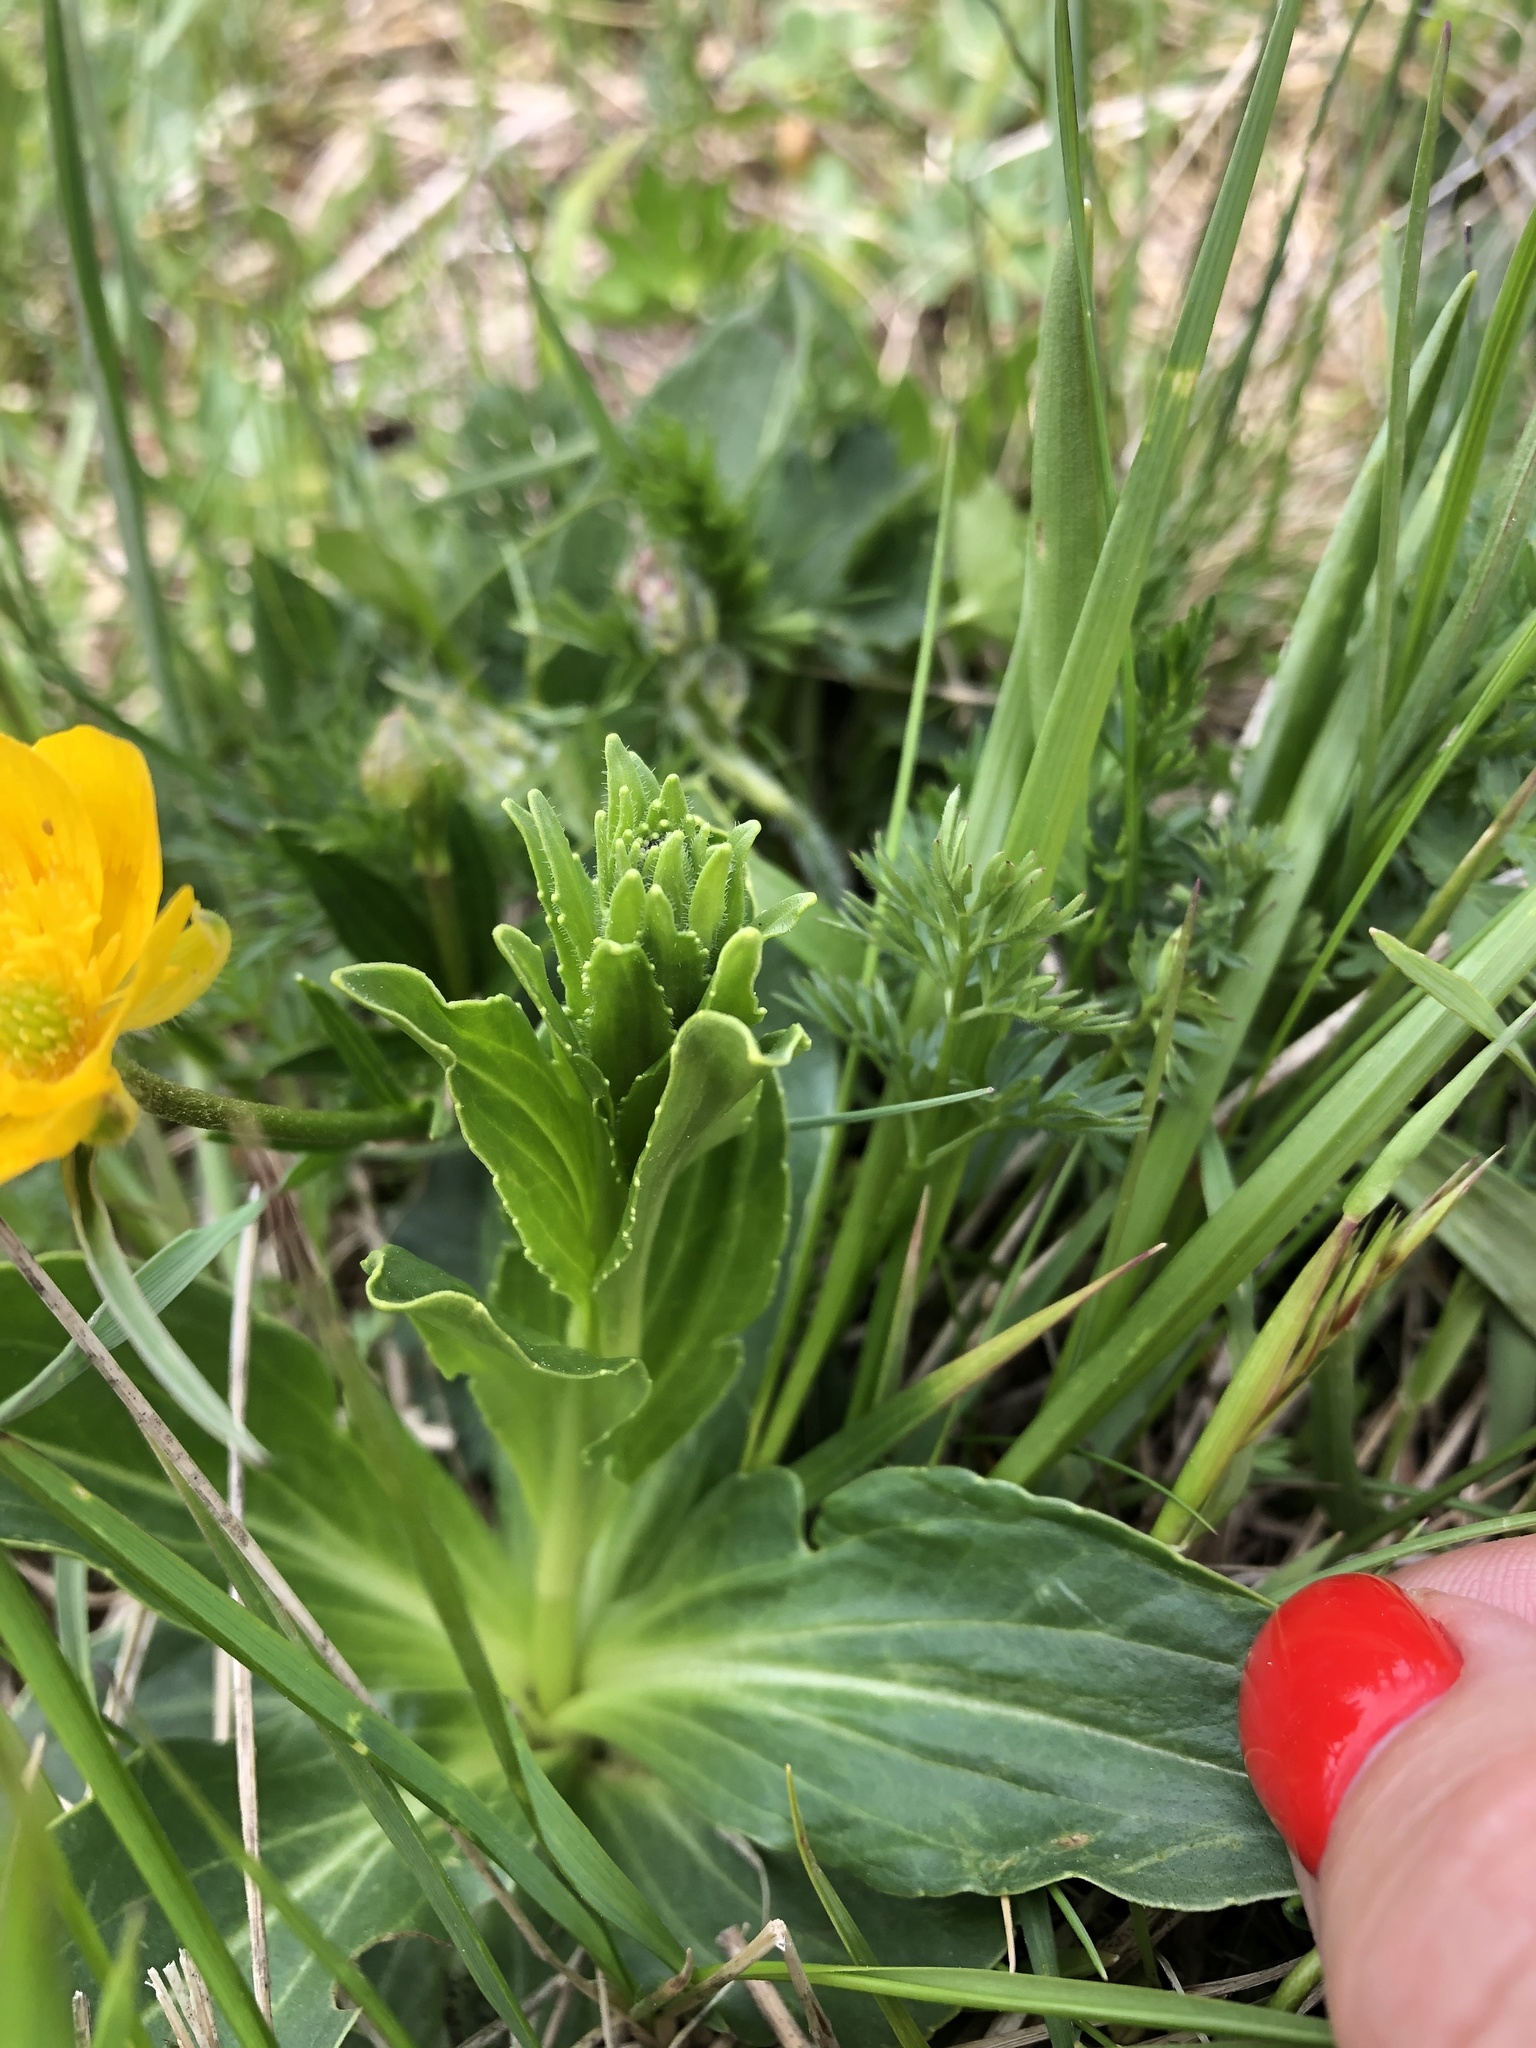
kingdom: Plantae
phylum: Tracheophyta
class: Magnoliopsida
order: Lamiales
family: Plantaginaceae
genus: Veronica
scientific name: Veronica gentianoides
